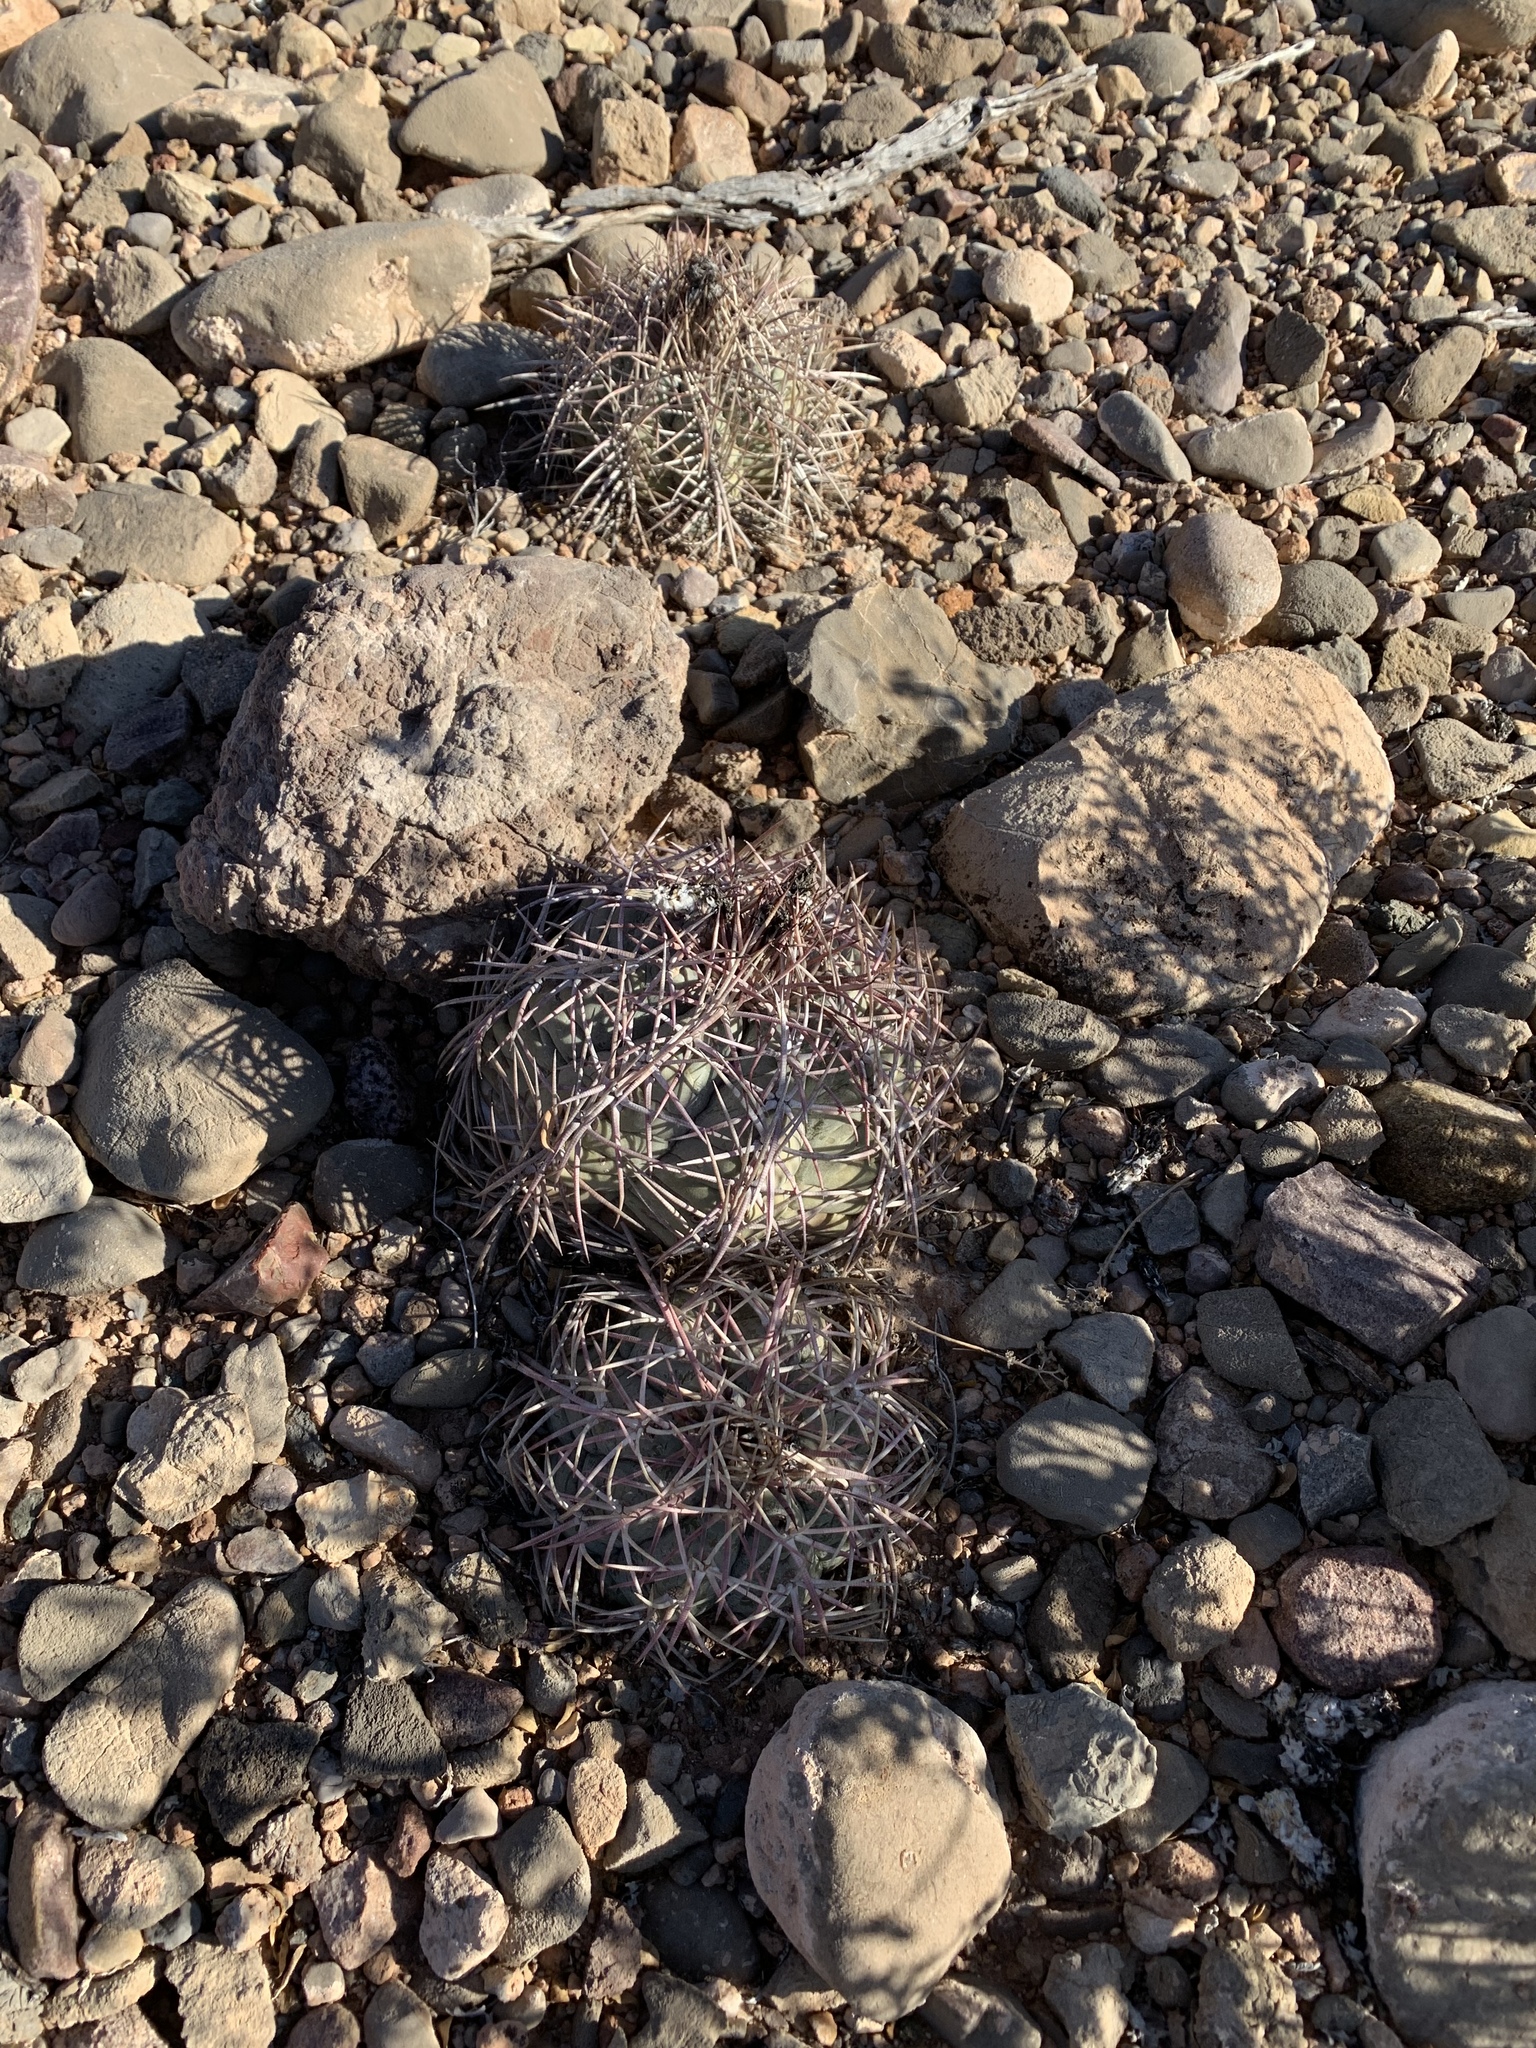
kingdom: Plantae
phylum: Tracheophyta
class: Magnoliopsida
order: Caryophyllales
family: Cactaceae
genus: Echinocactus
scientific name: Echinocactus horizonthalonius
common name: Devilshead
